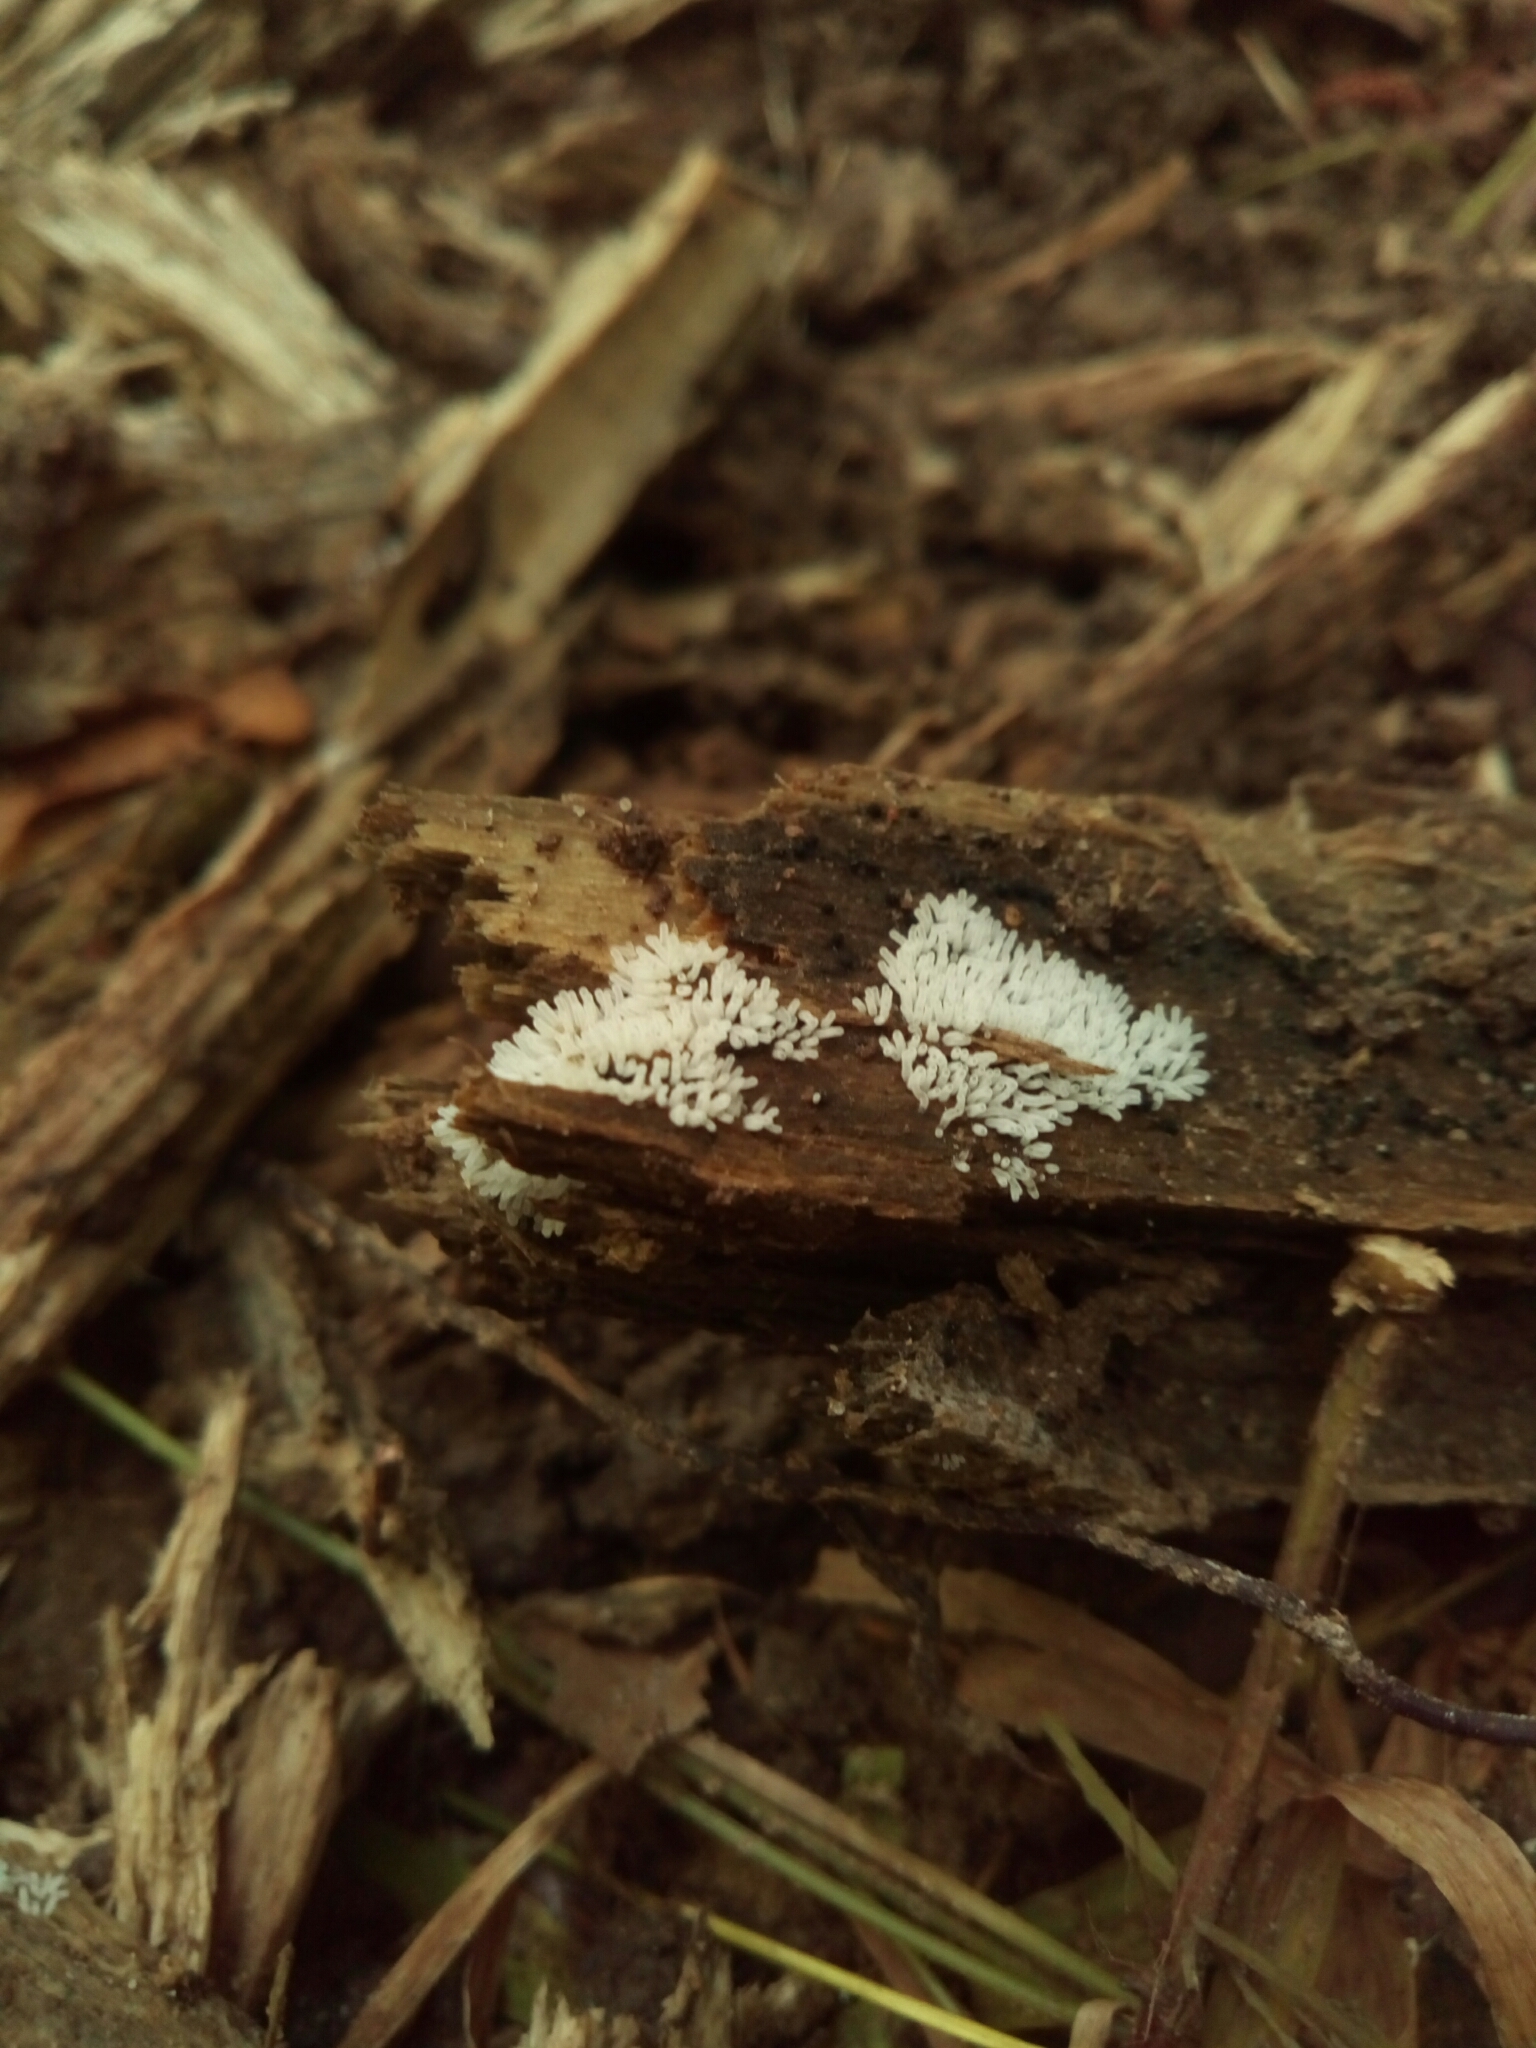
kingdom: Protozoa
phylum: Mycetozoa
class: Protosteliomycetes
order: Ceratiomyxales
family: Ceratiomyxaceae
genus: Ceratiomyxa
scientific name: Ceratiomyxa fruticulosa
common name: Honeycomb coral slime mold
